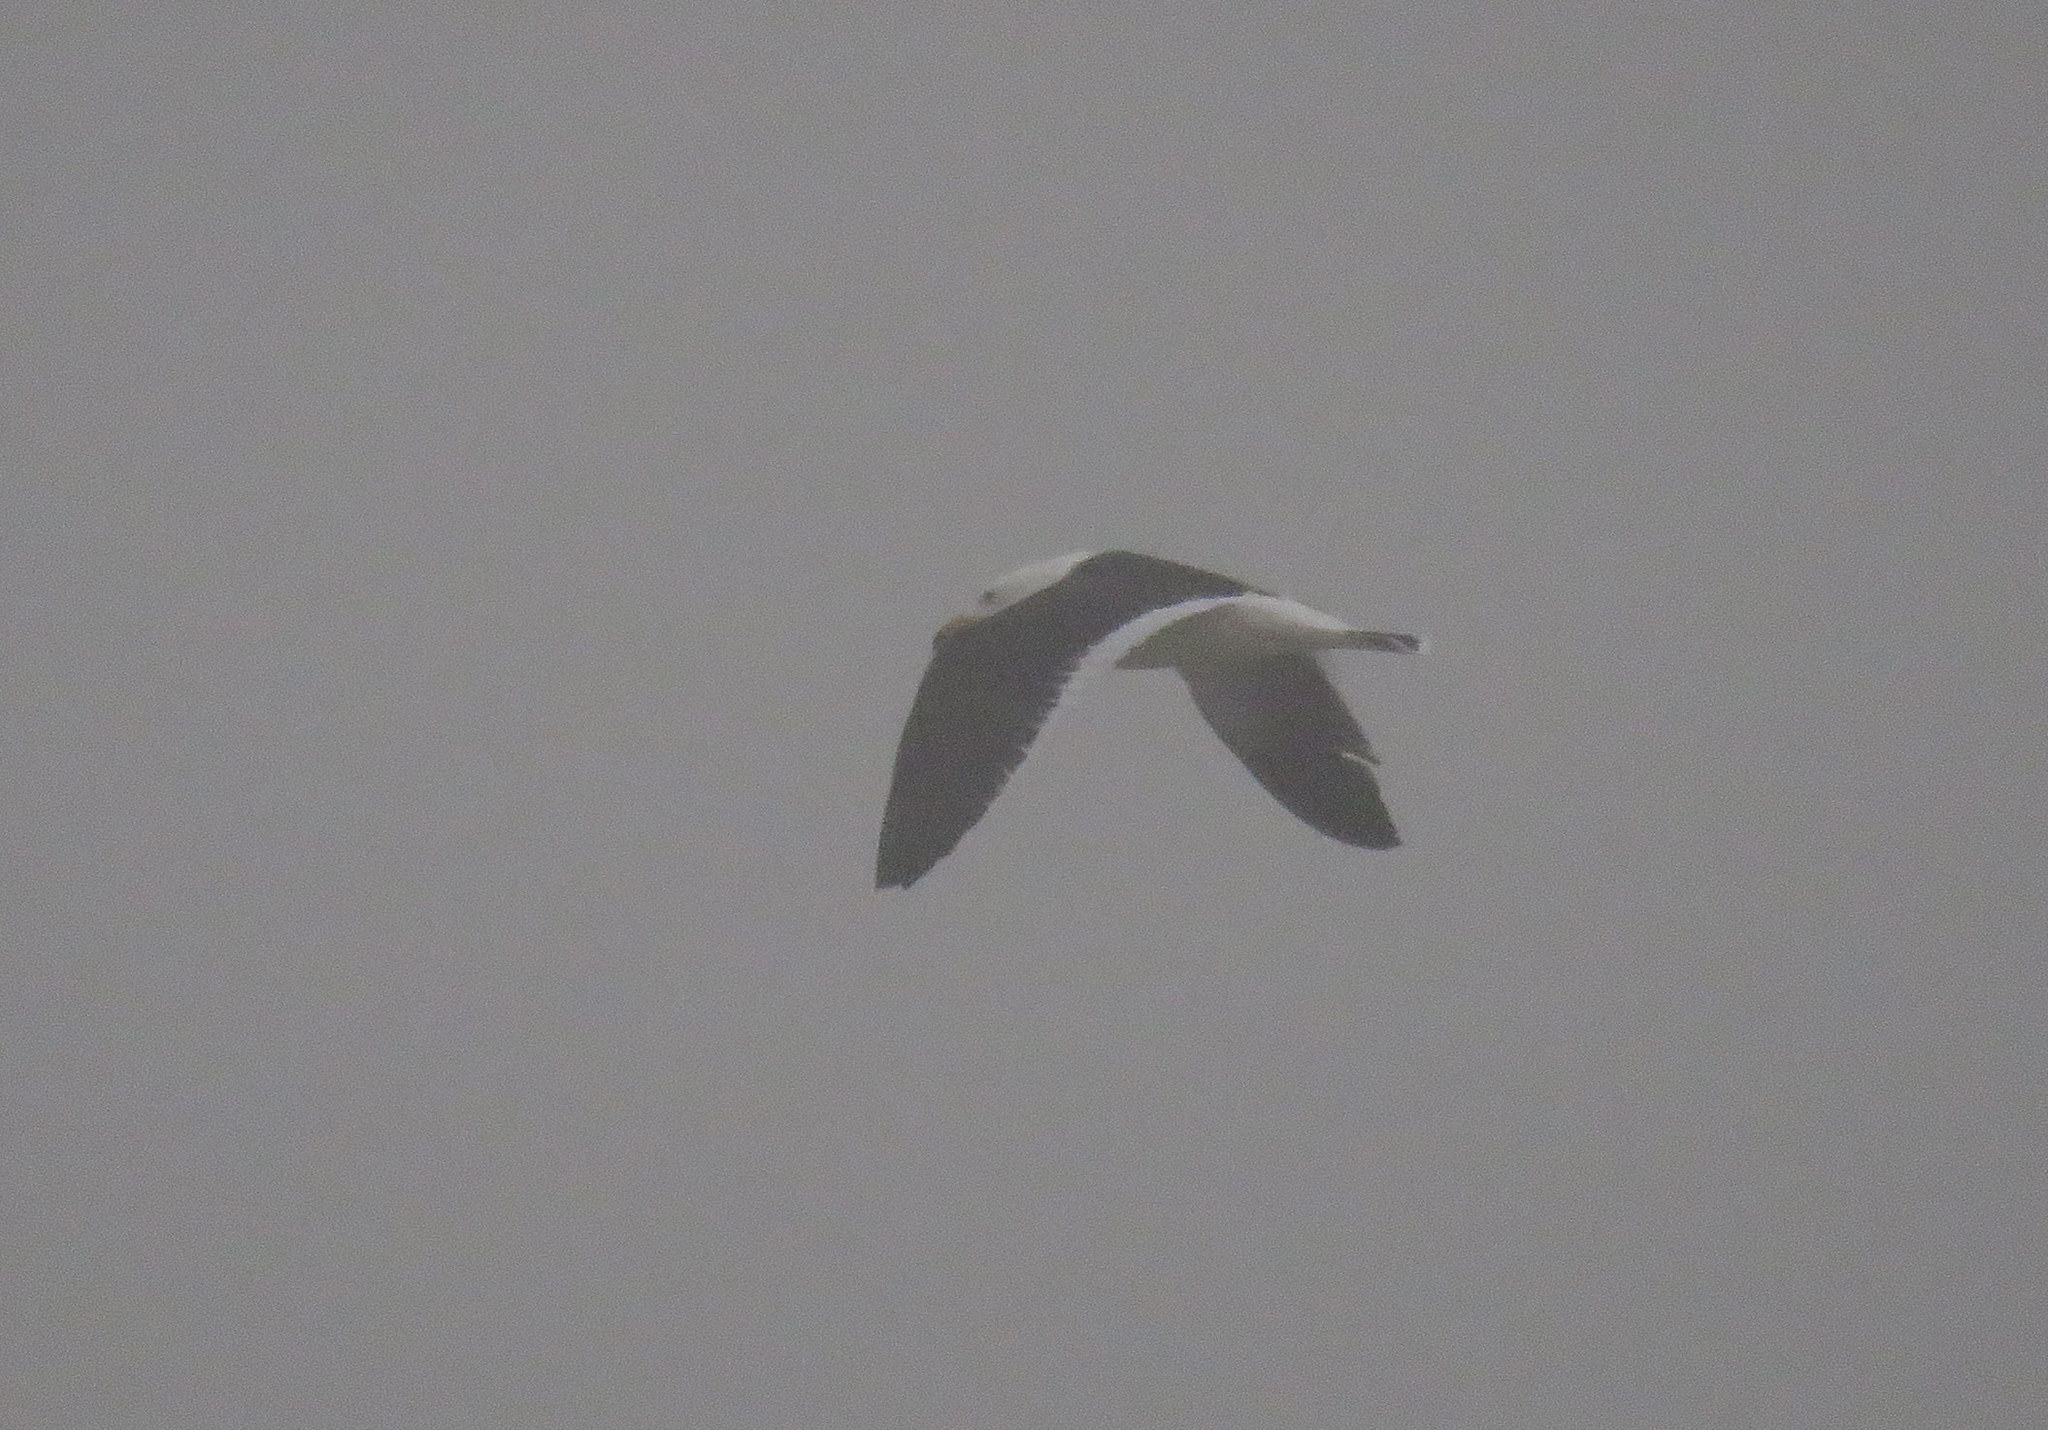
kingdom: Animalia
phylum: Chordata
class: Aves
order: Charadriiformes
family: Laridae
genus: Larus
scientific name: Larus atlanticus
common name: Olrog's gull
